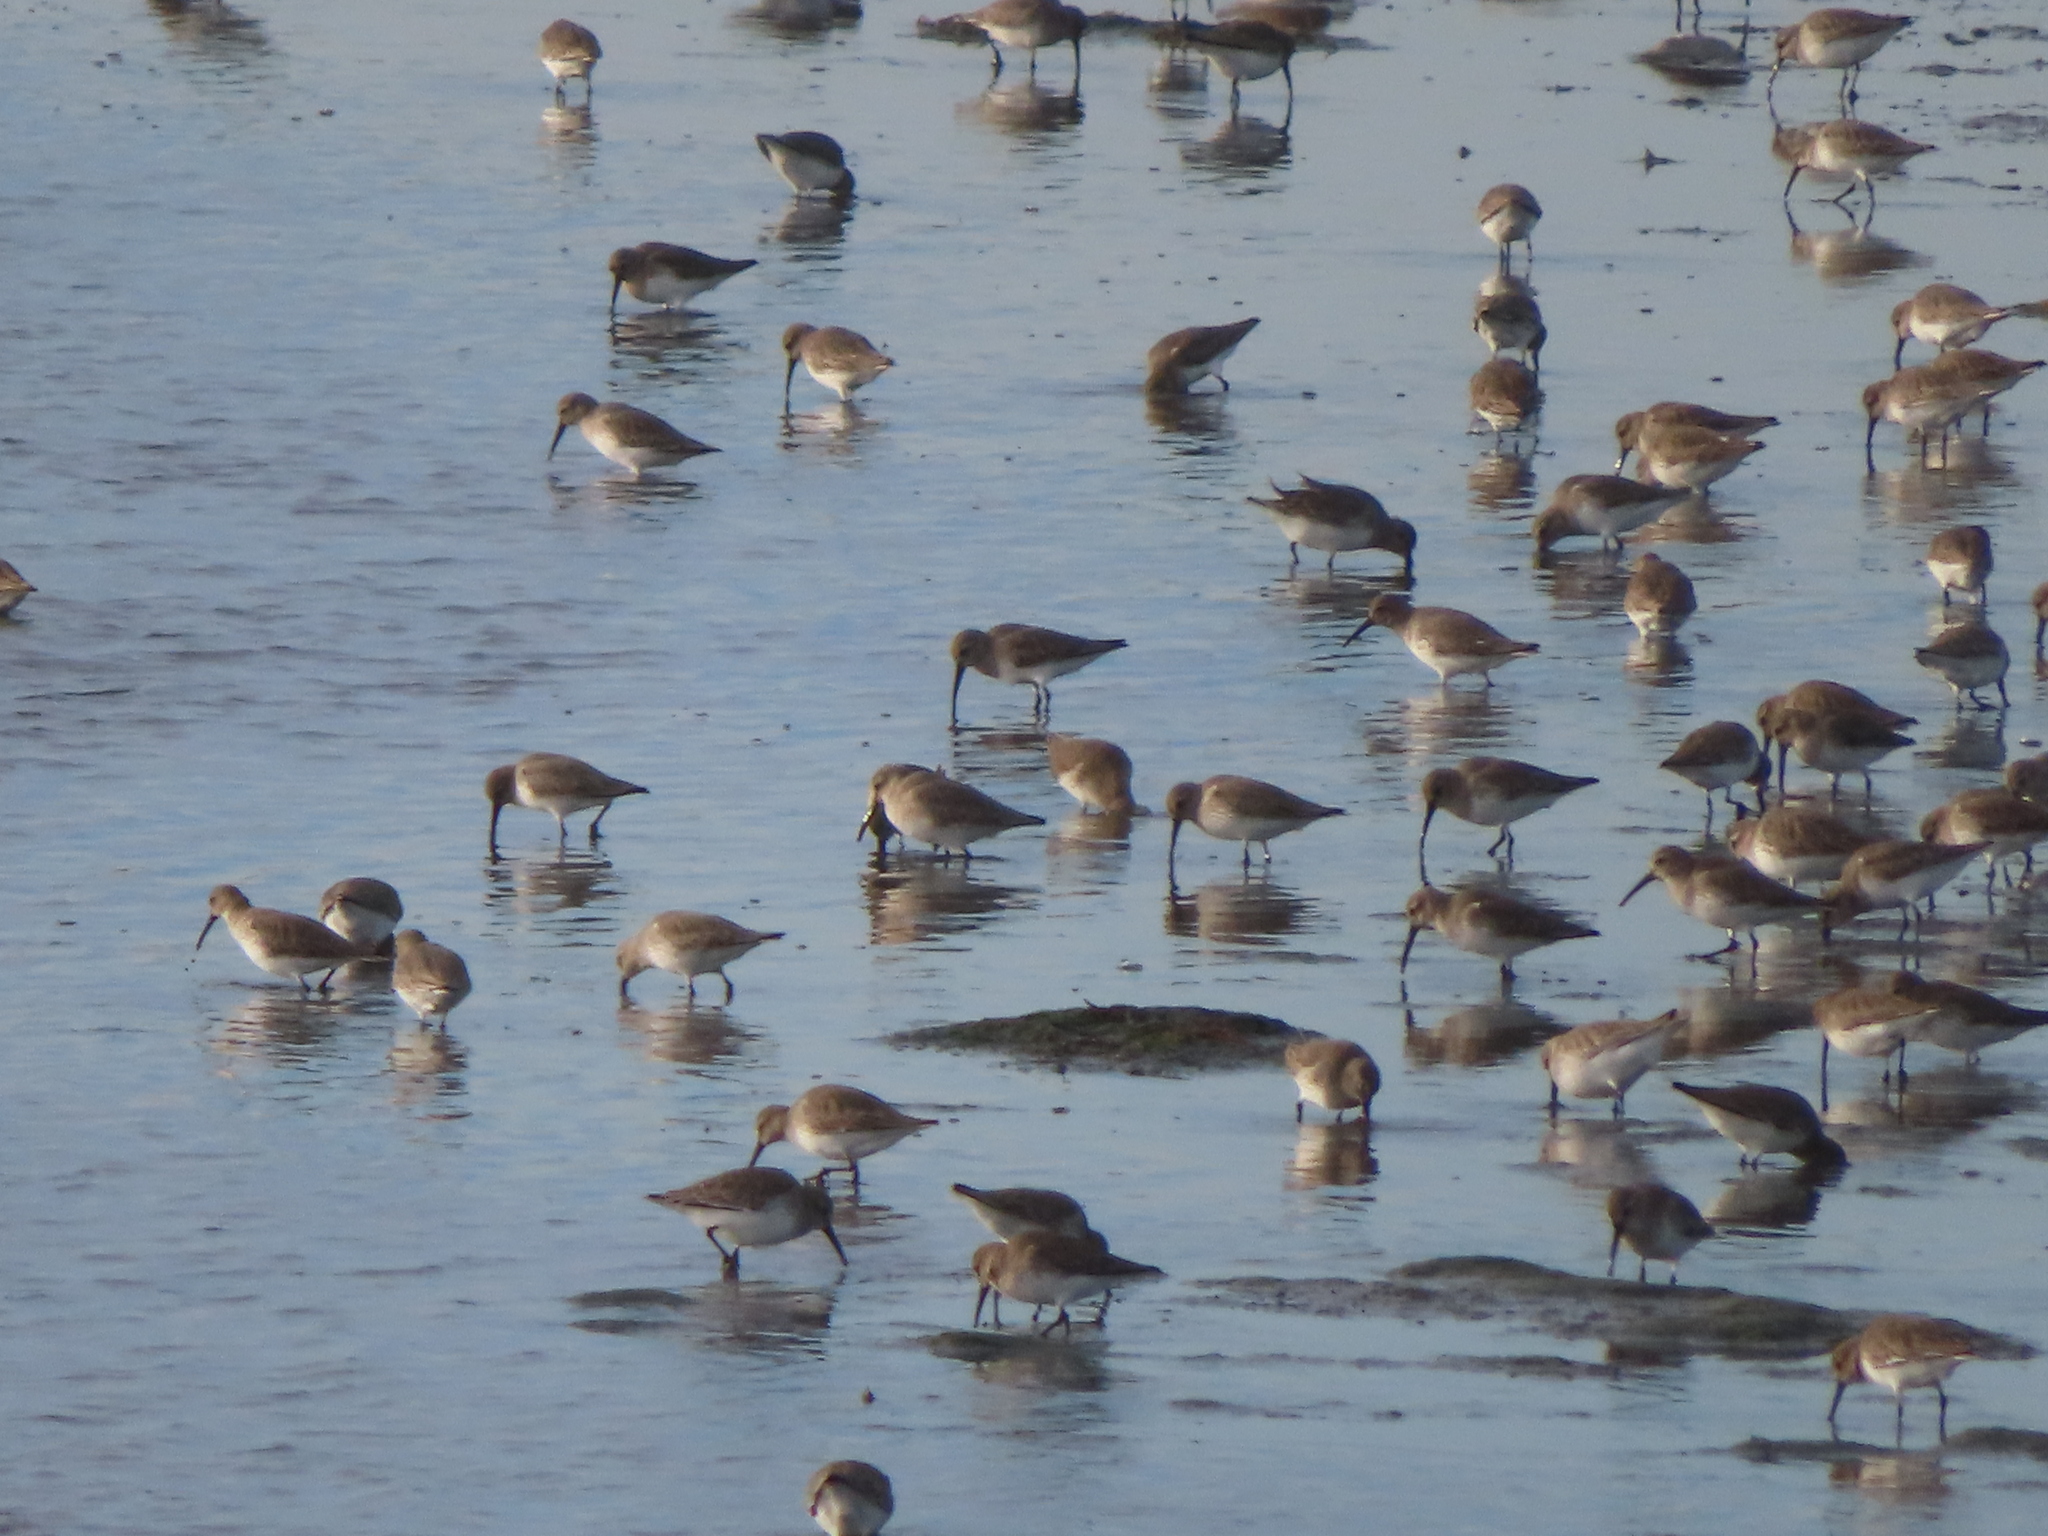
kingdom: Animalia
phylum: Chordata
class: Aves
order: Charadriiformes
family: Scolopacidae
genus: Calidris
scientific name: Calidris alpina
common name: Dunlin
